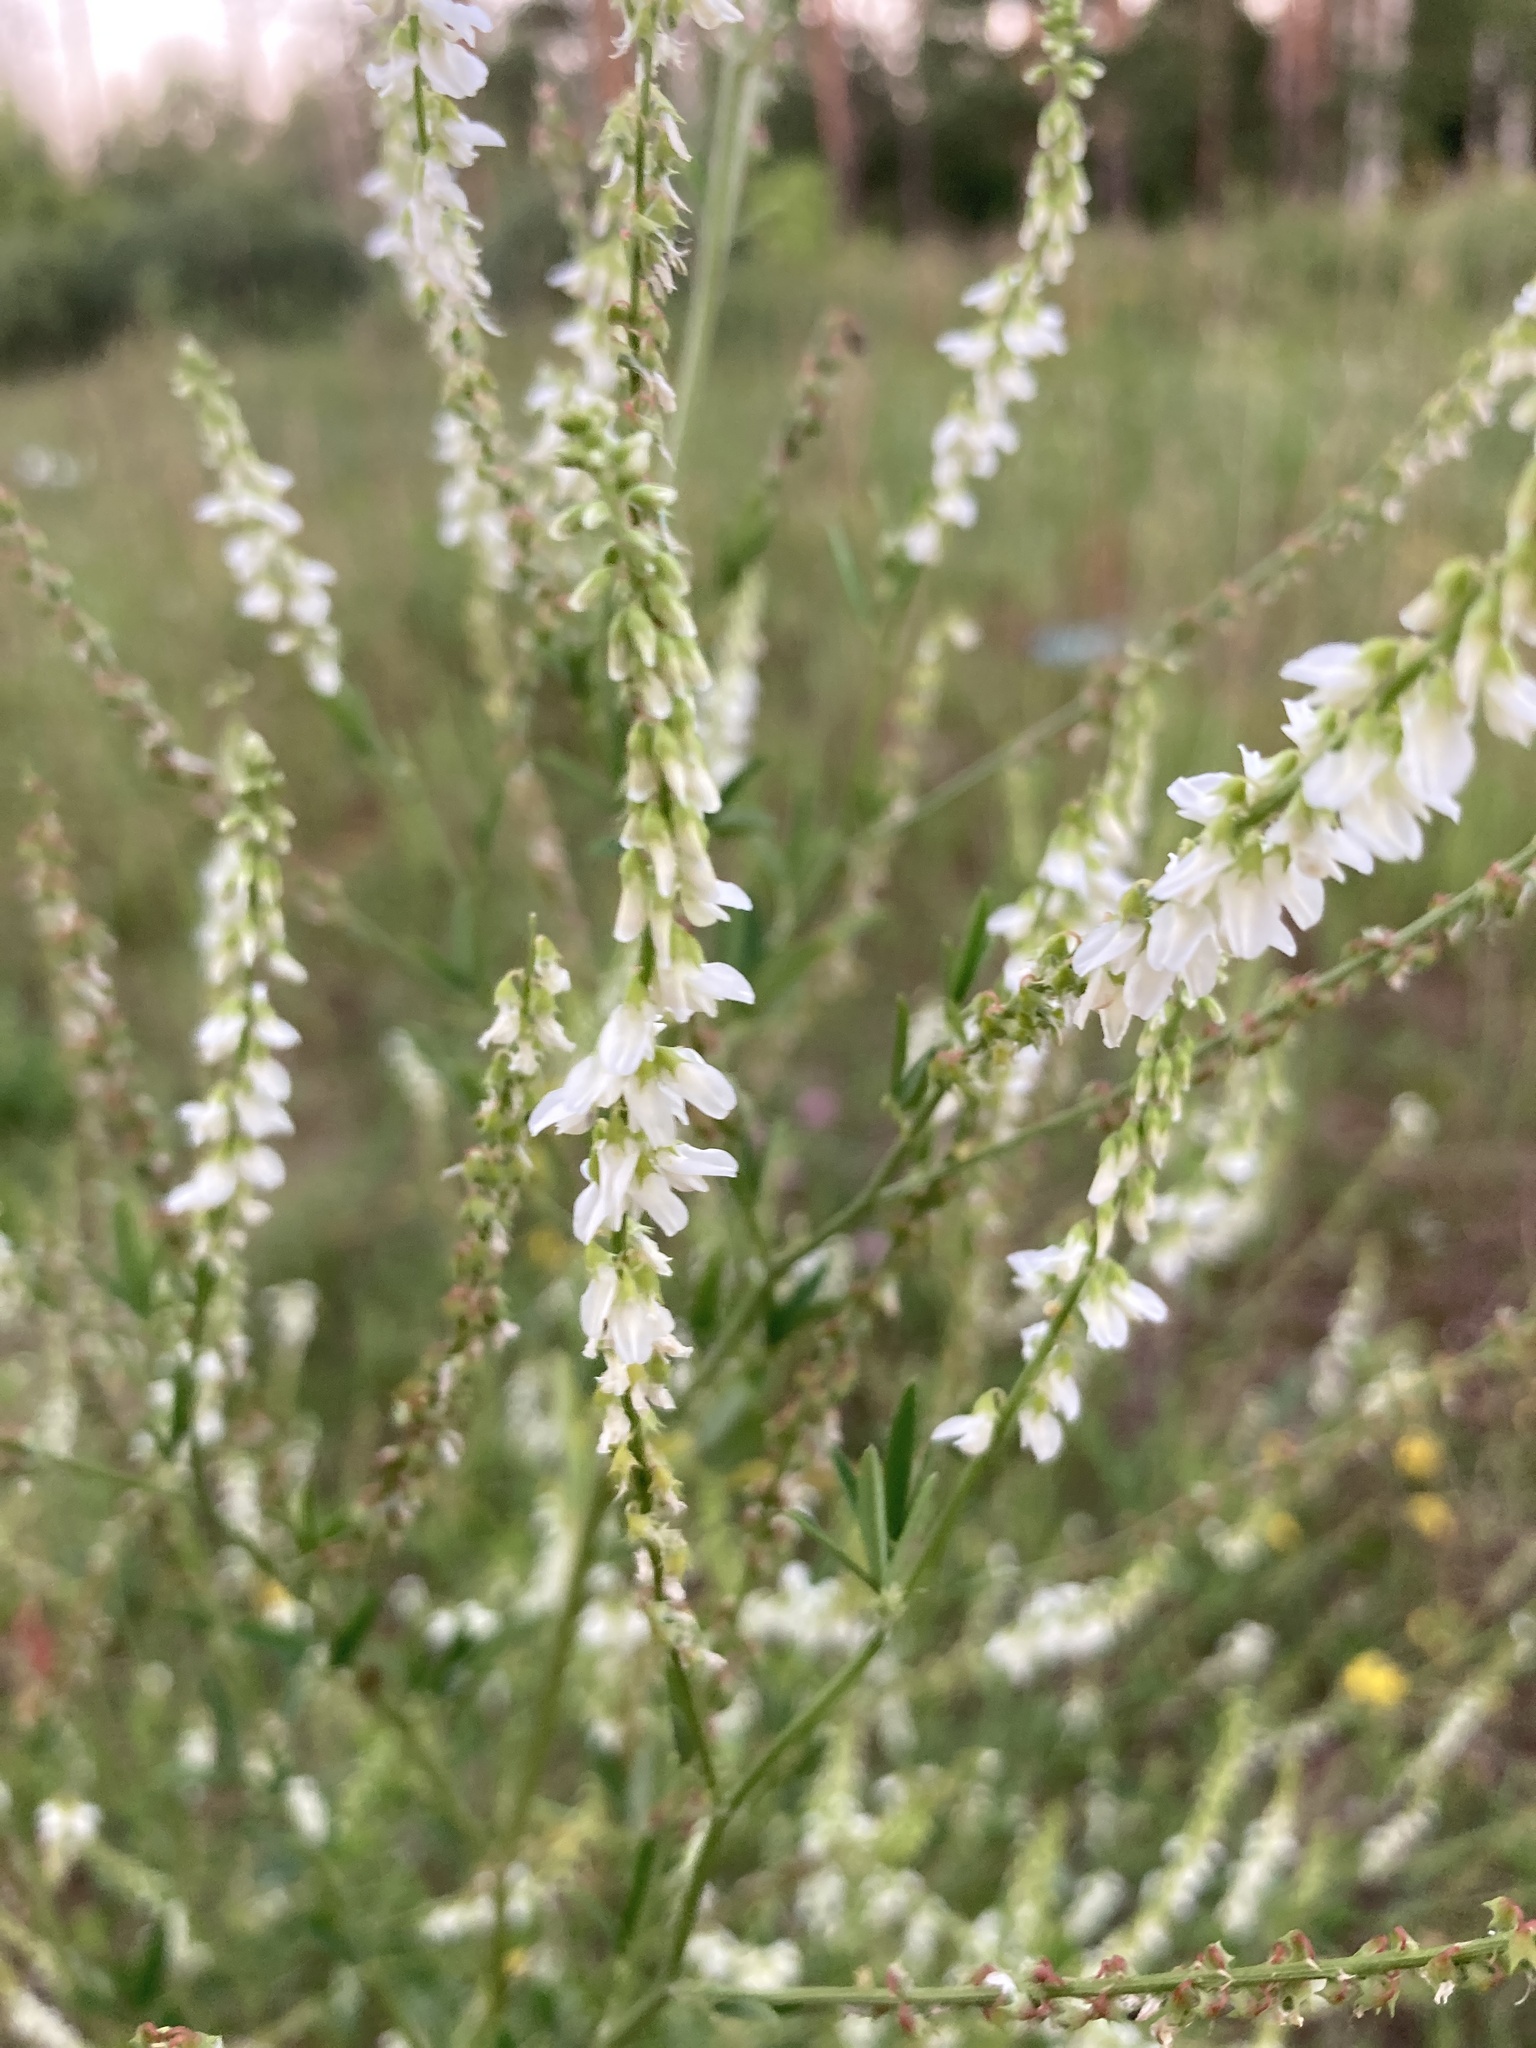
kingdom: Plantae
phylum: Tracheophyta
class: Magnoliopsida
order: Fabales
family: Fabaceae
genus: Melilotus
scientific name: Melilotus albus
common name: White melilot
